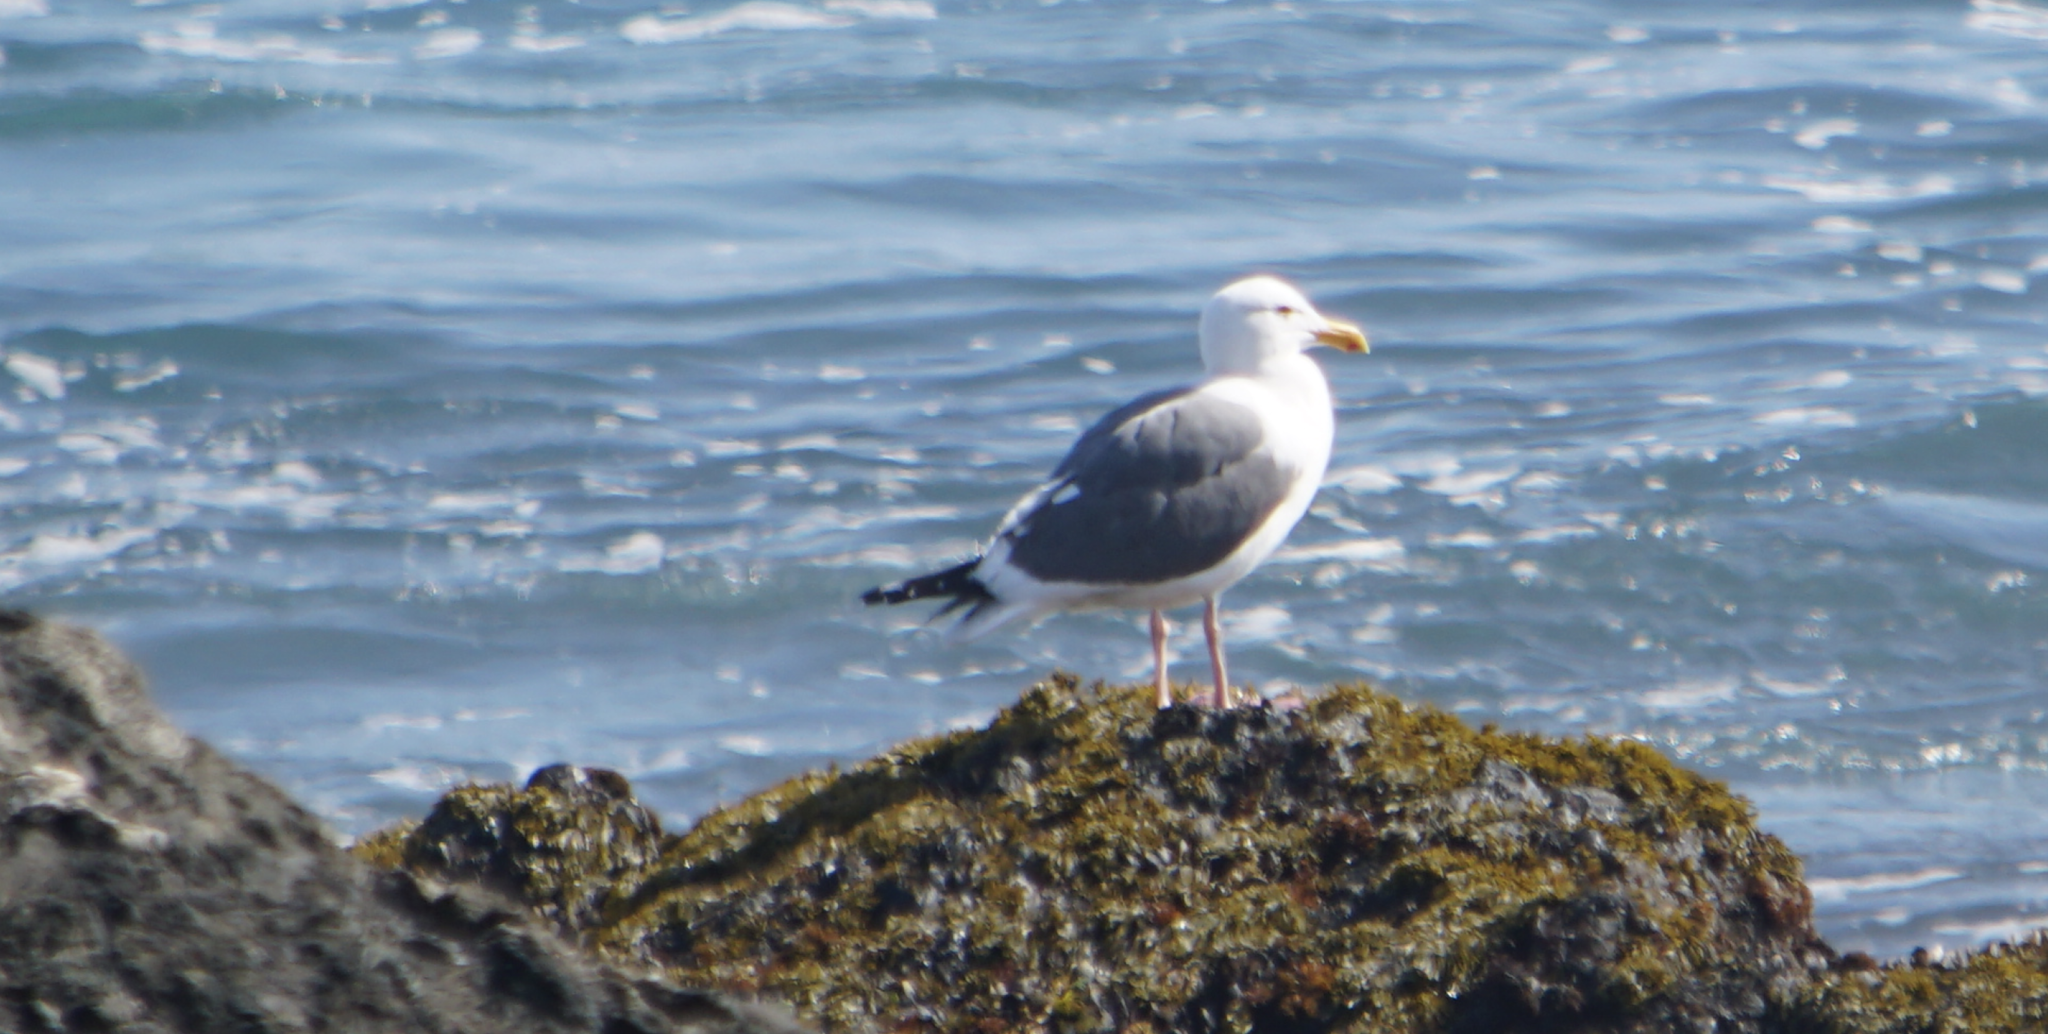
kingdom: Animalia
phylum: Chordata
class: Aves
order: Charadriiformes
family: Laridae
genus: Larus
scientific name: Larus occidentalis
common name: Western gull
